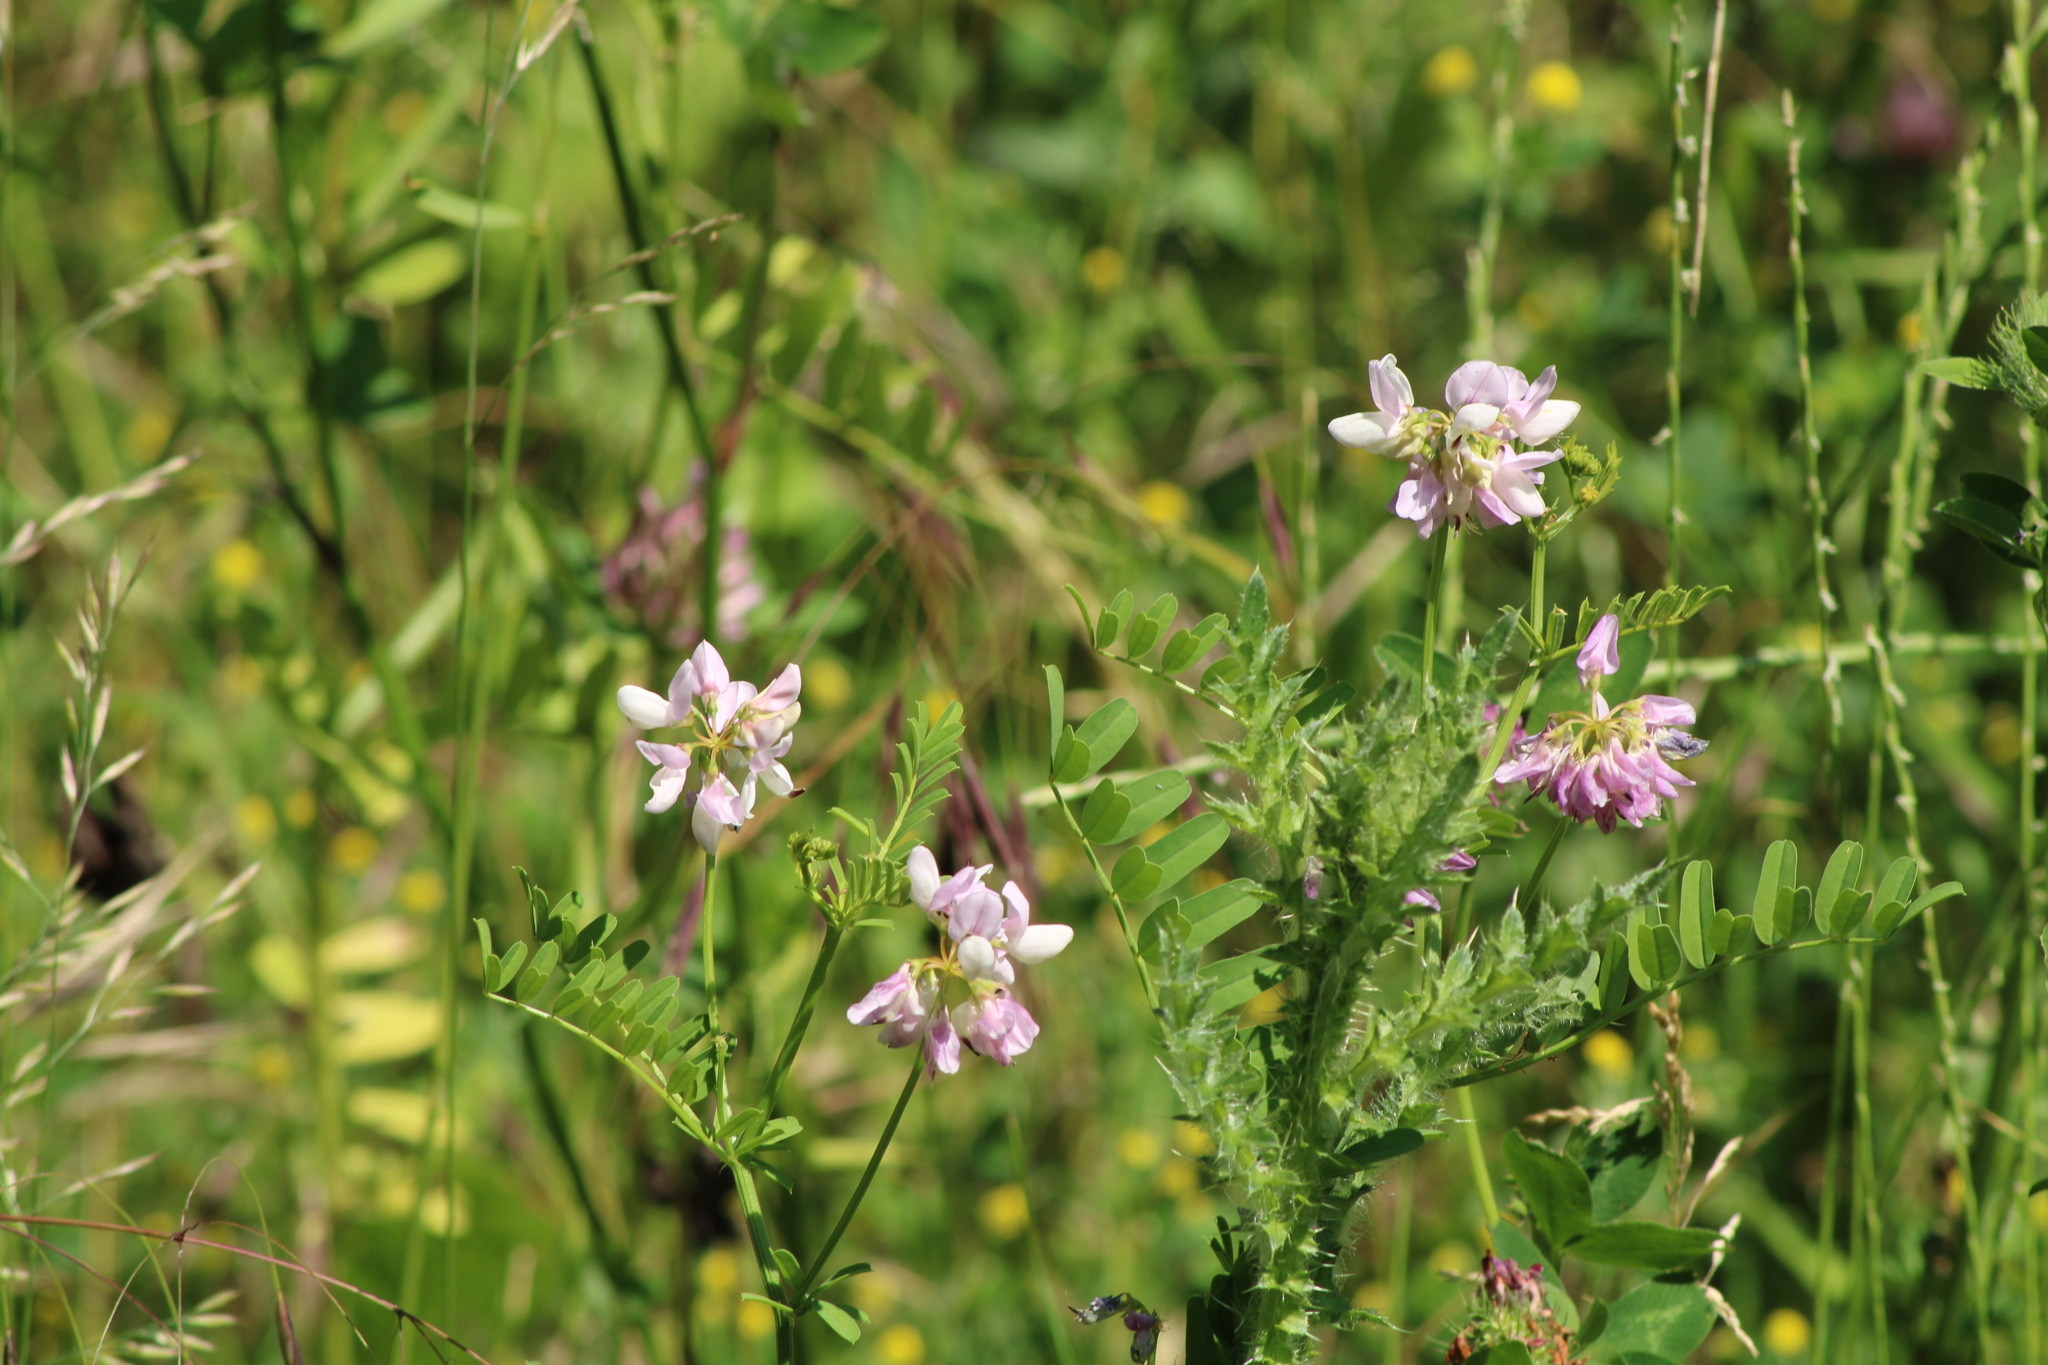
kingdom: Plantae
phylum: Tracheophyta
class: Magnoliopsida
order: Fabales
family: Fabaceae
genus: Coronilla
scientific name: Coronilla varia
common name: Crownvetch
